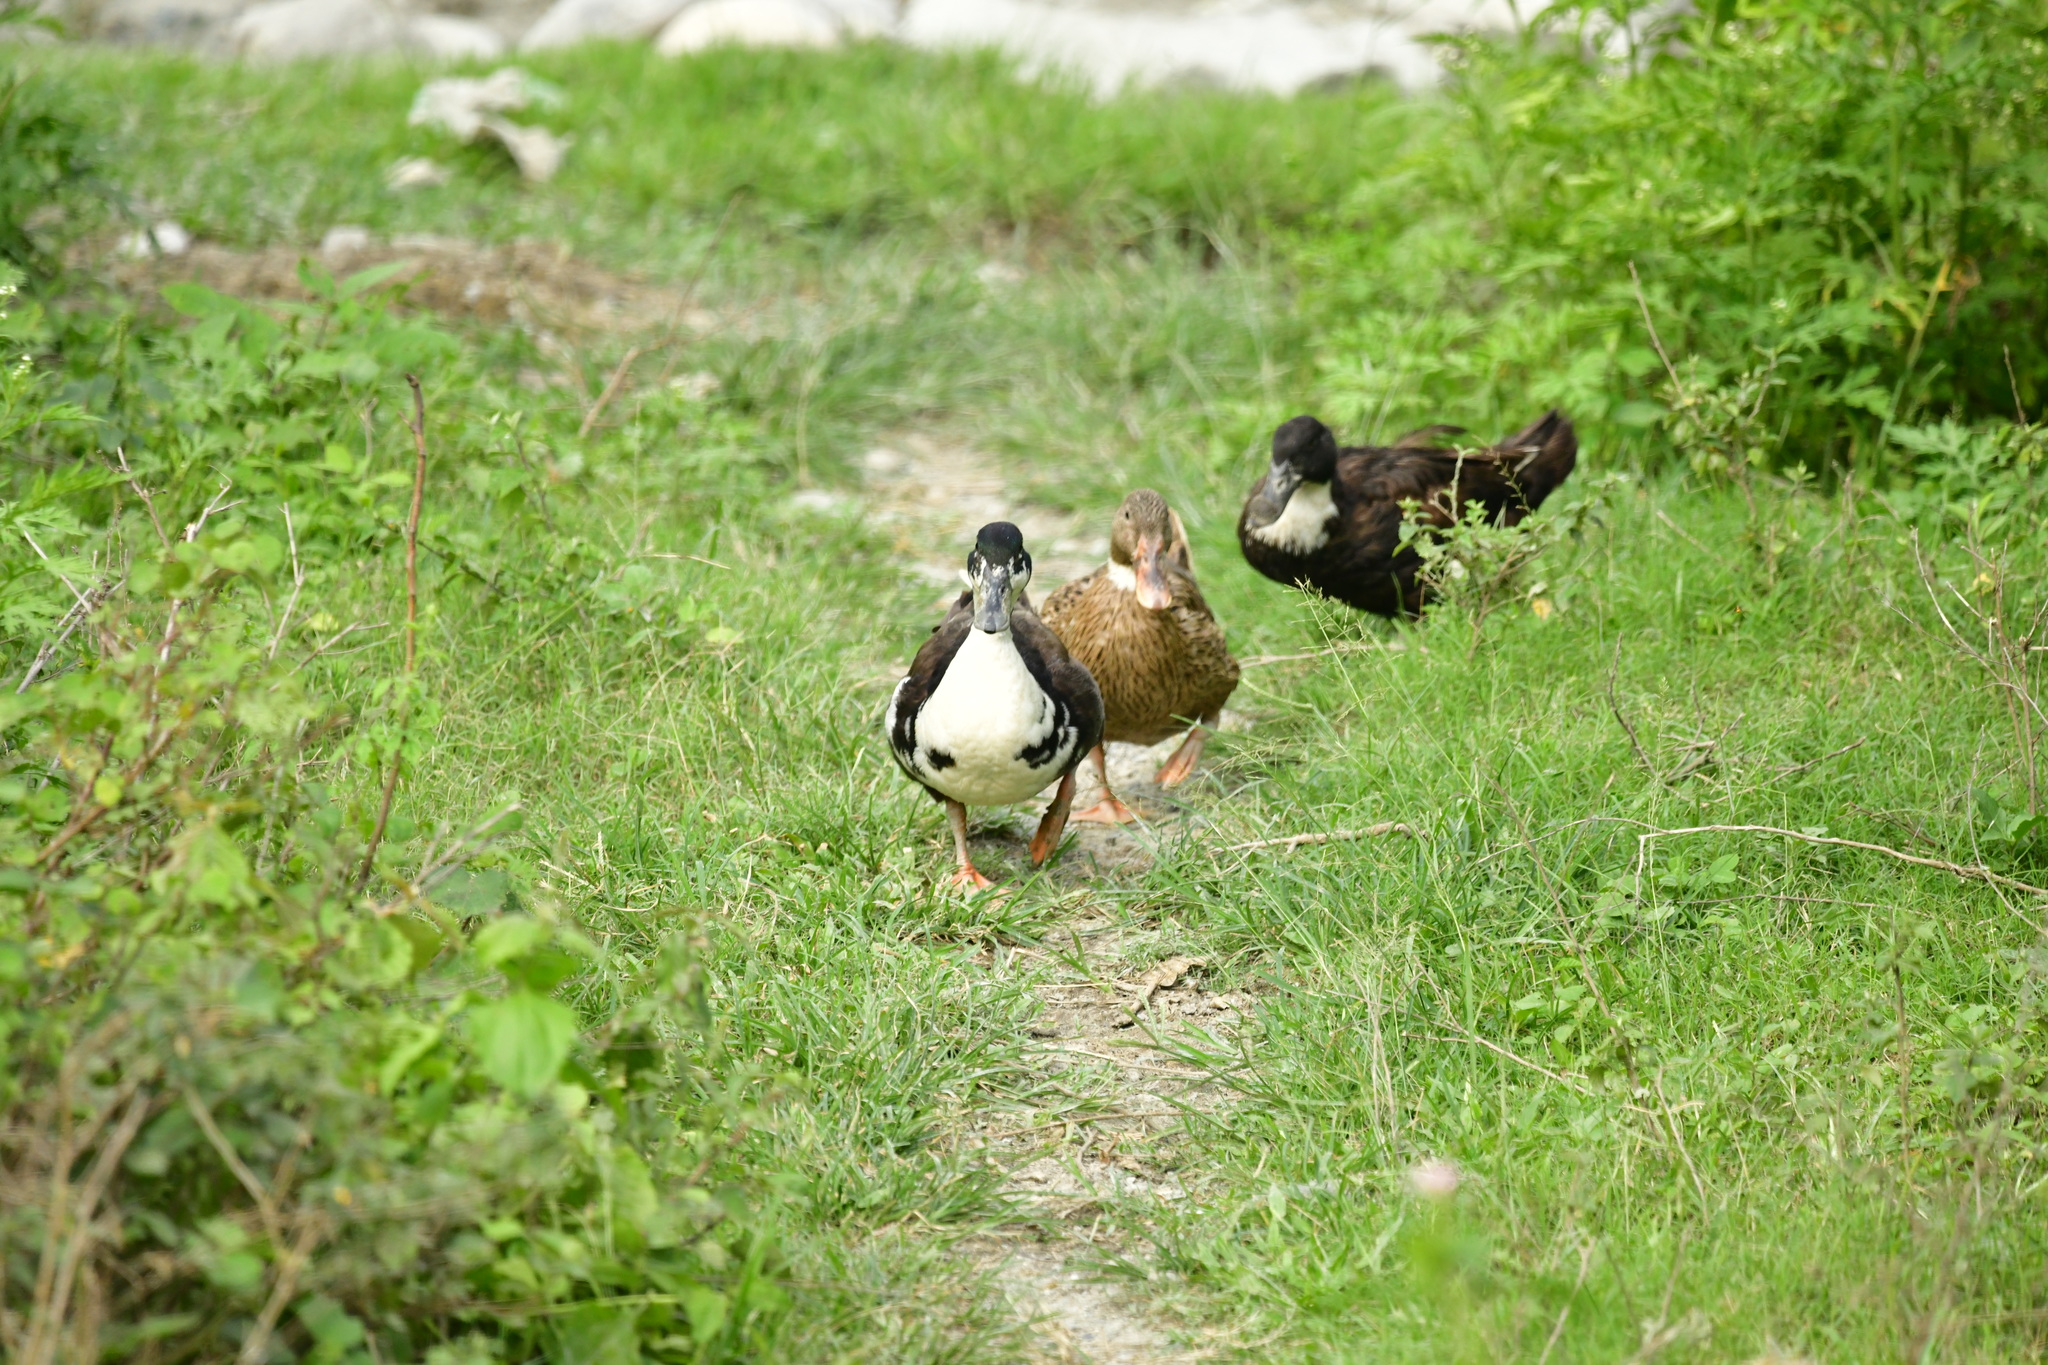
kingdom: Animalia
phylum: Chordata
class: Aves
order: Anseriformes
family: Anatidae
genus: Anas
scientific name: Anas platyrhynchos
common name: Mallard
